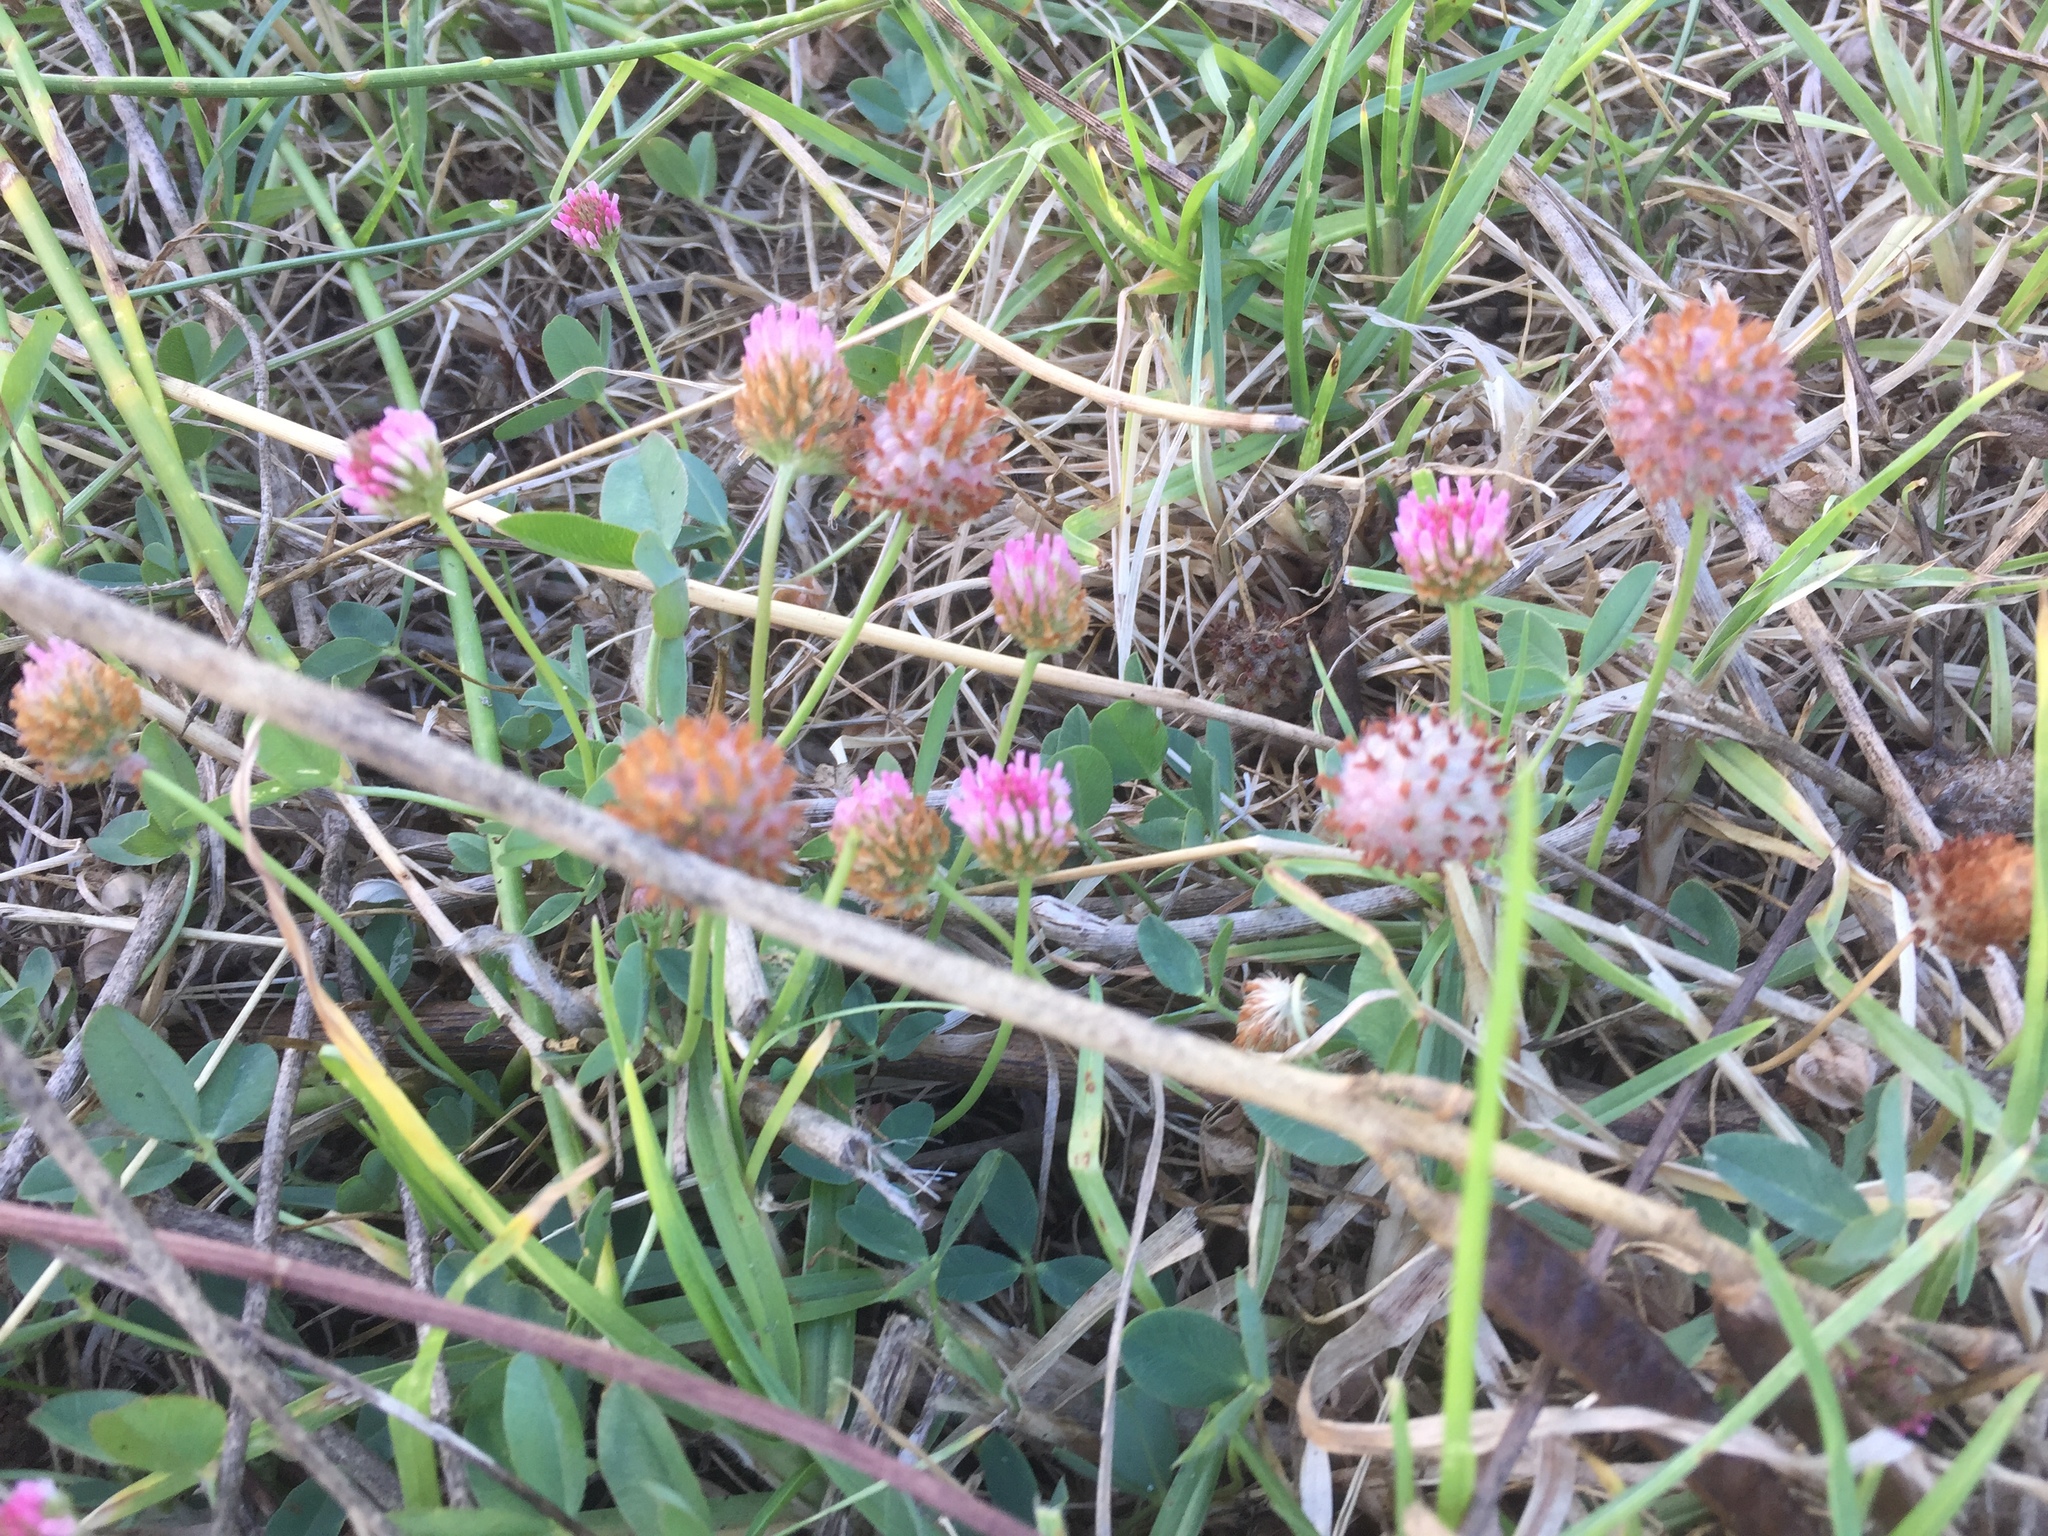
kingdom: Plantae
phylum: Tracheophyta
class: Magnoliopsida
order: Fabales
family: Fabaceae
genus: Trifolium
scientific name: Trifolium fragiferum
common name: Strawberry clover
